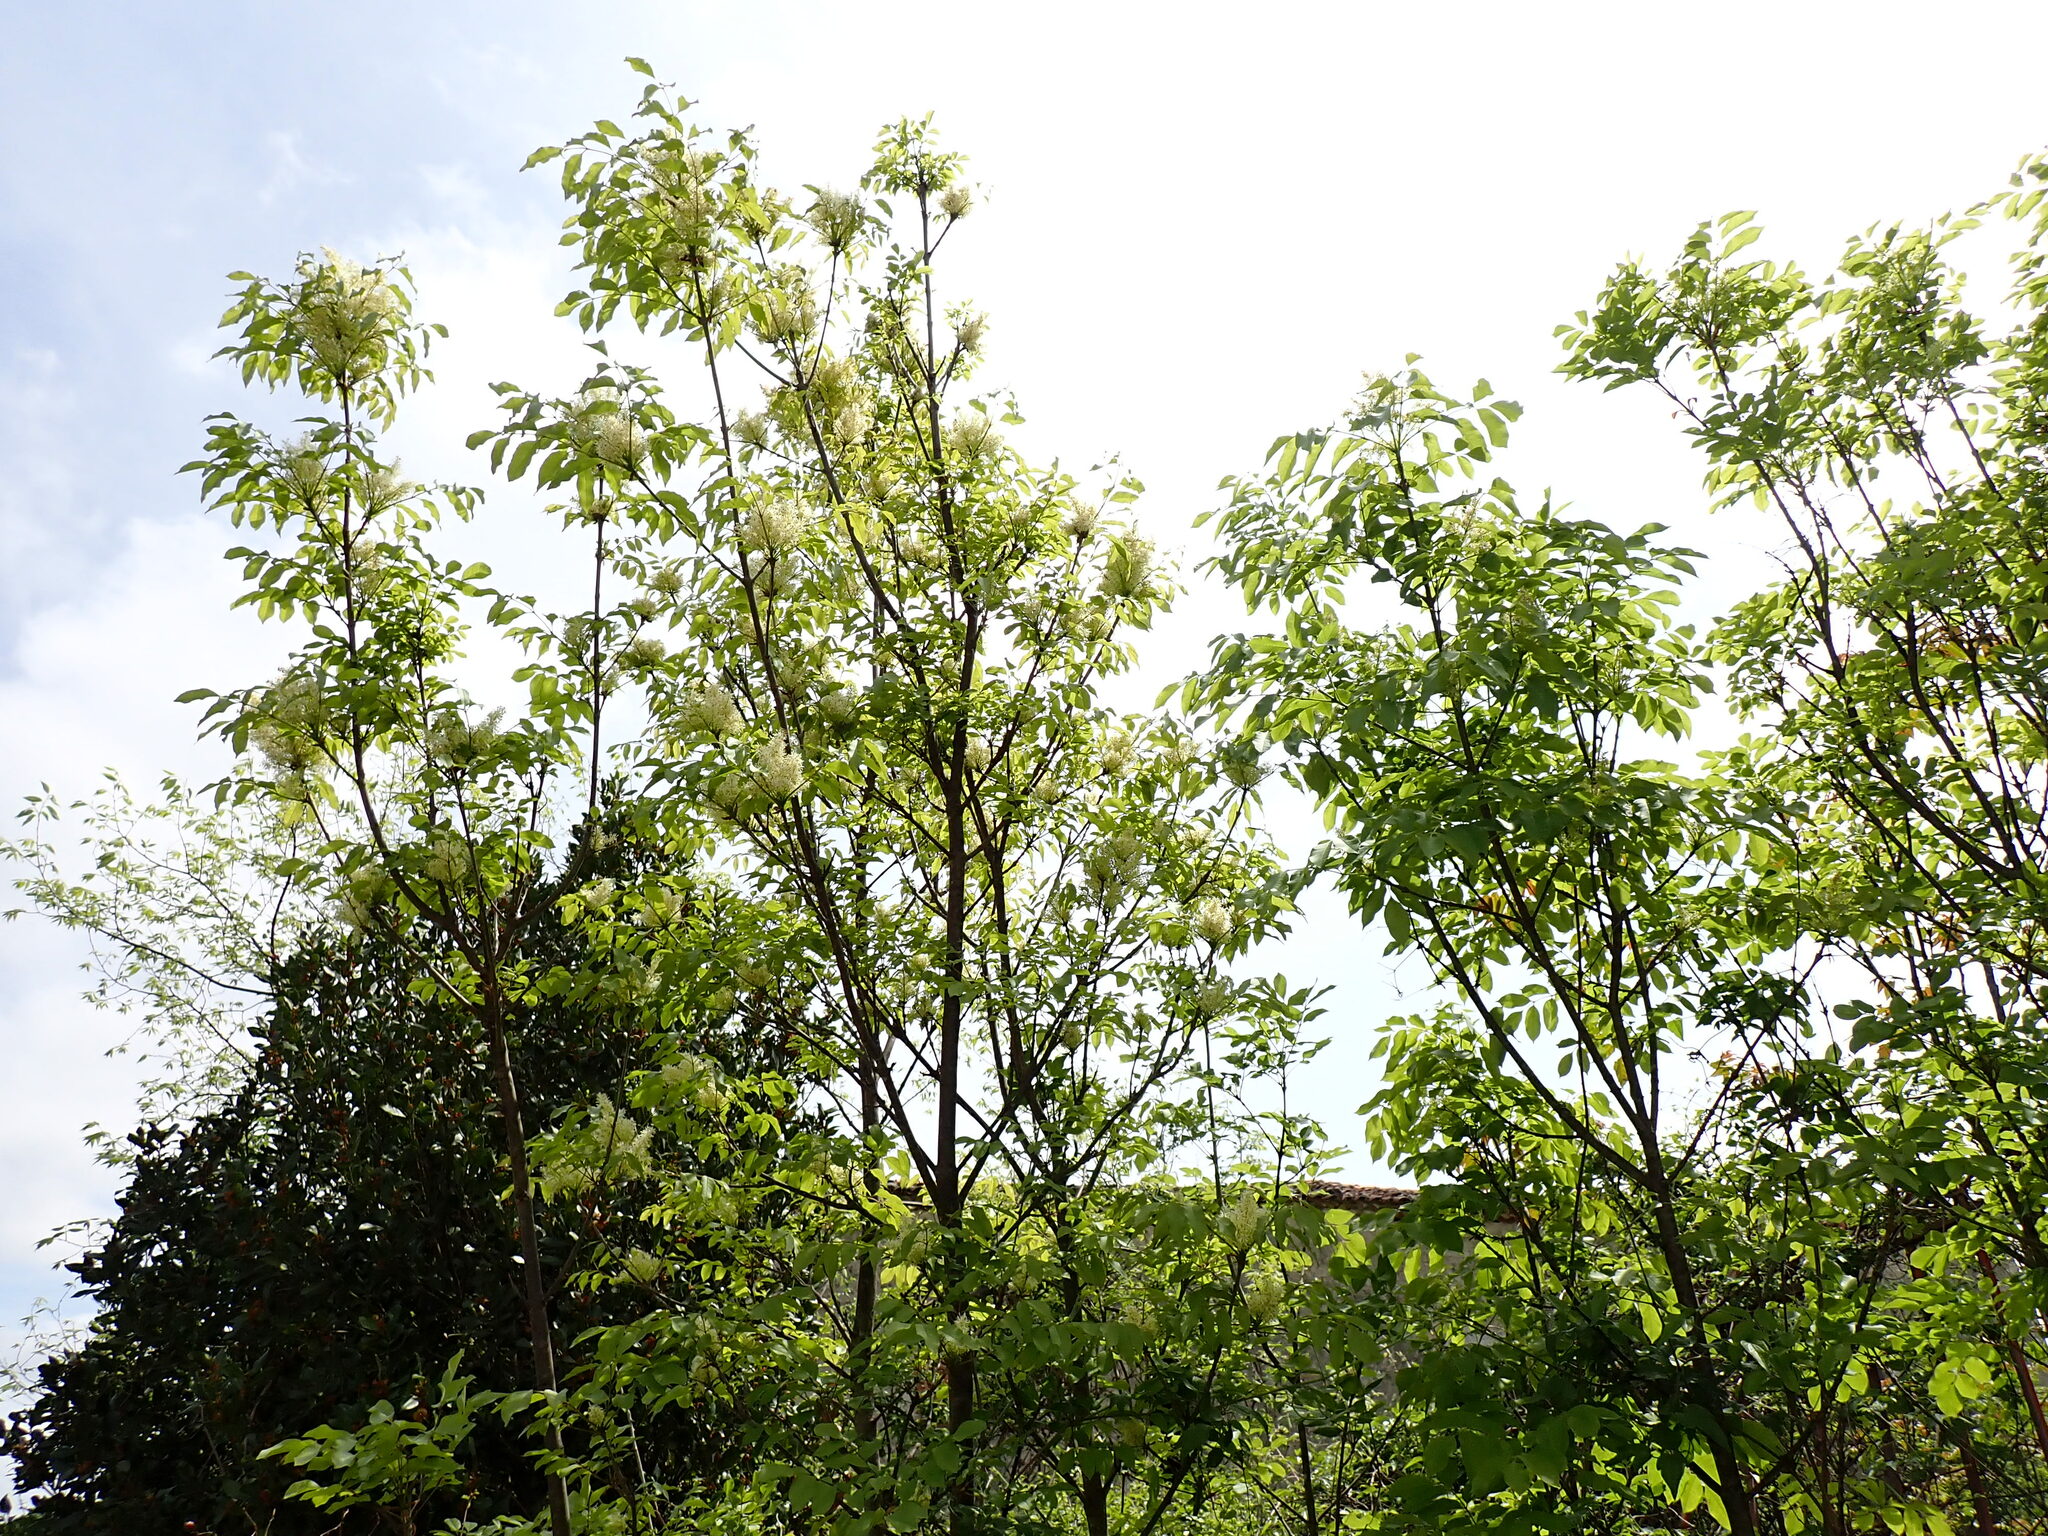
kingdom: Plantae
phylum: Tracheophyta
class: Magnoliopsida
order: Lamiales
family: Oleaceae
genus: Fraxinus
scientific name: Fraxinus ornus
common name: Manna ash
